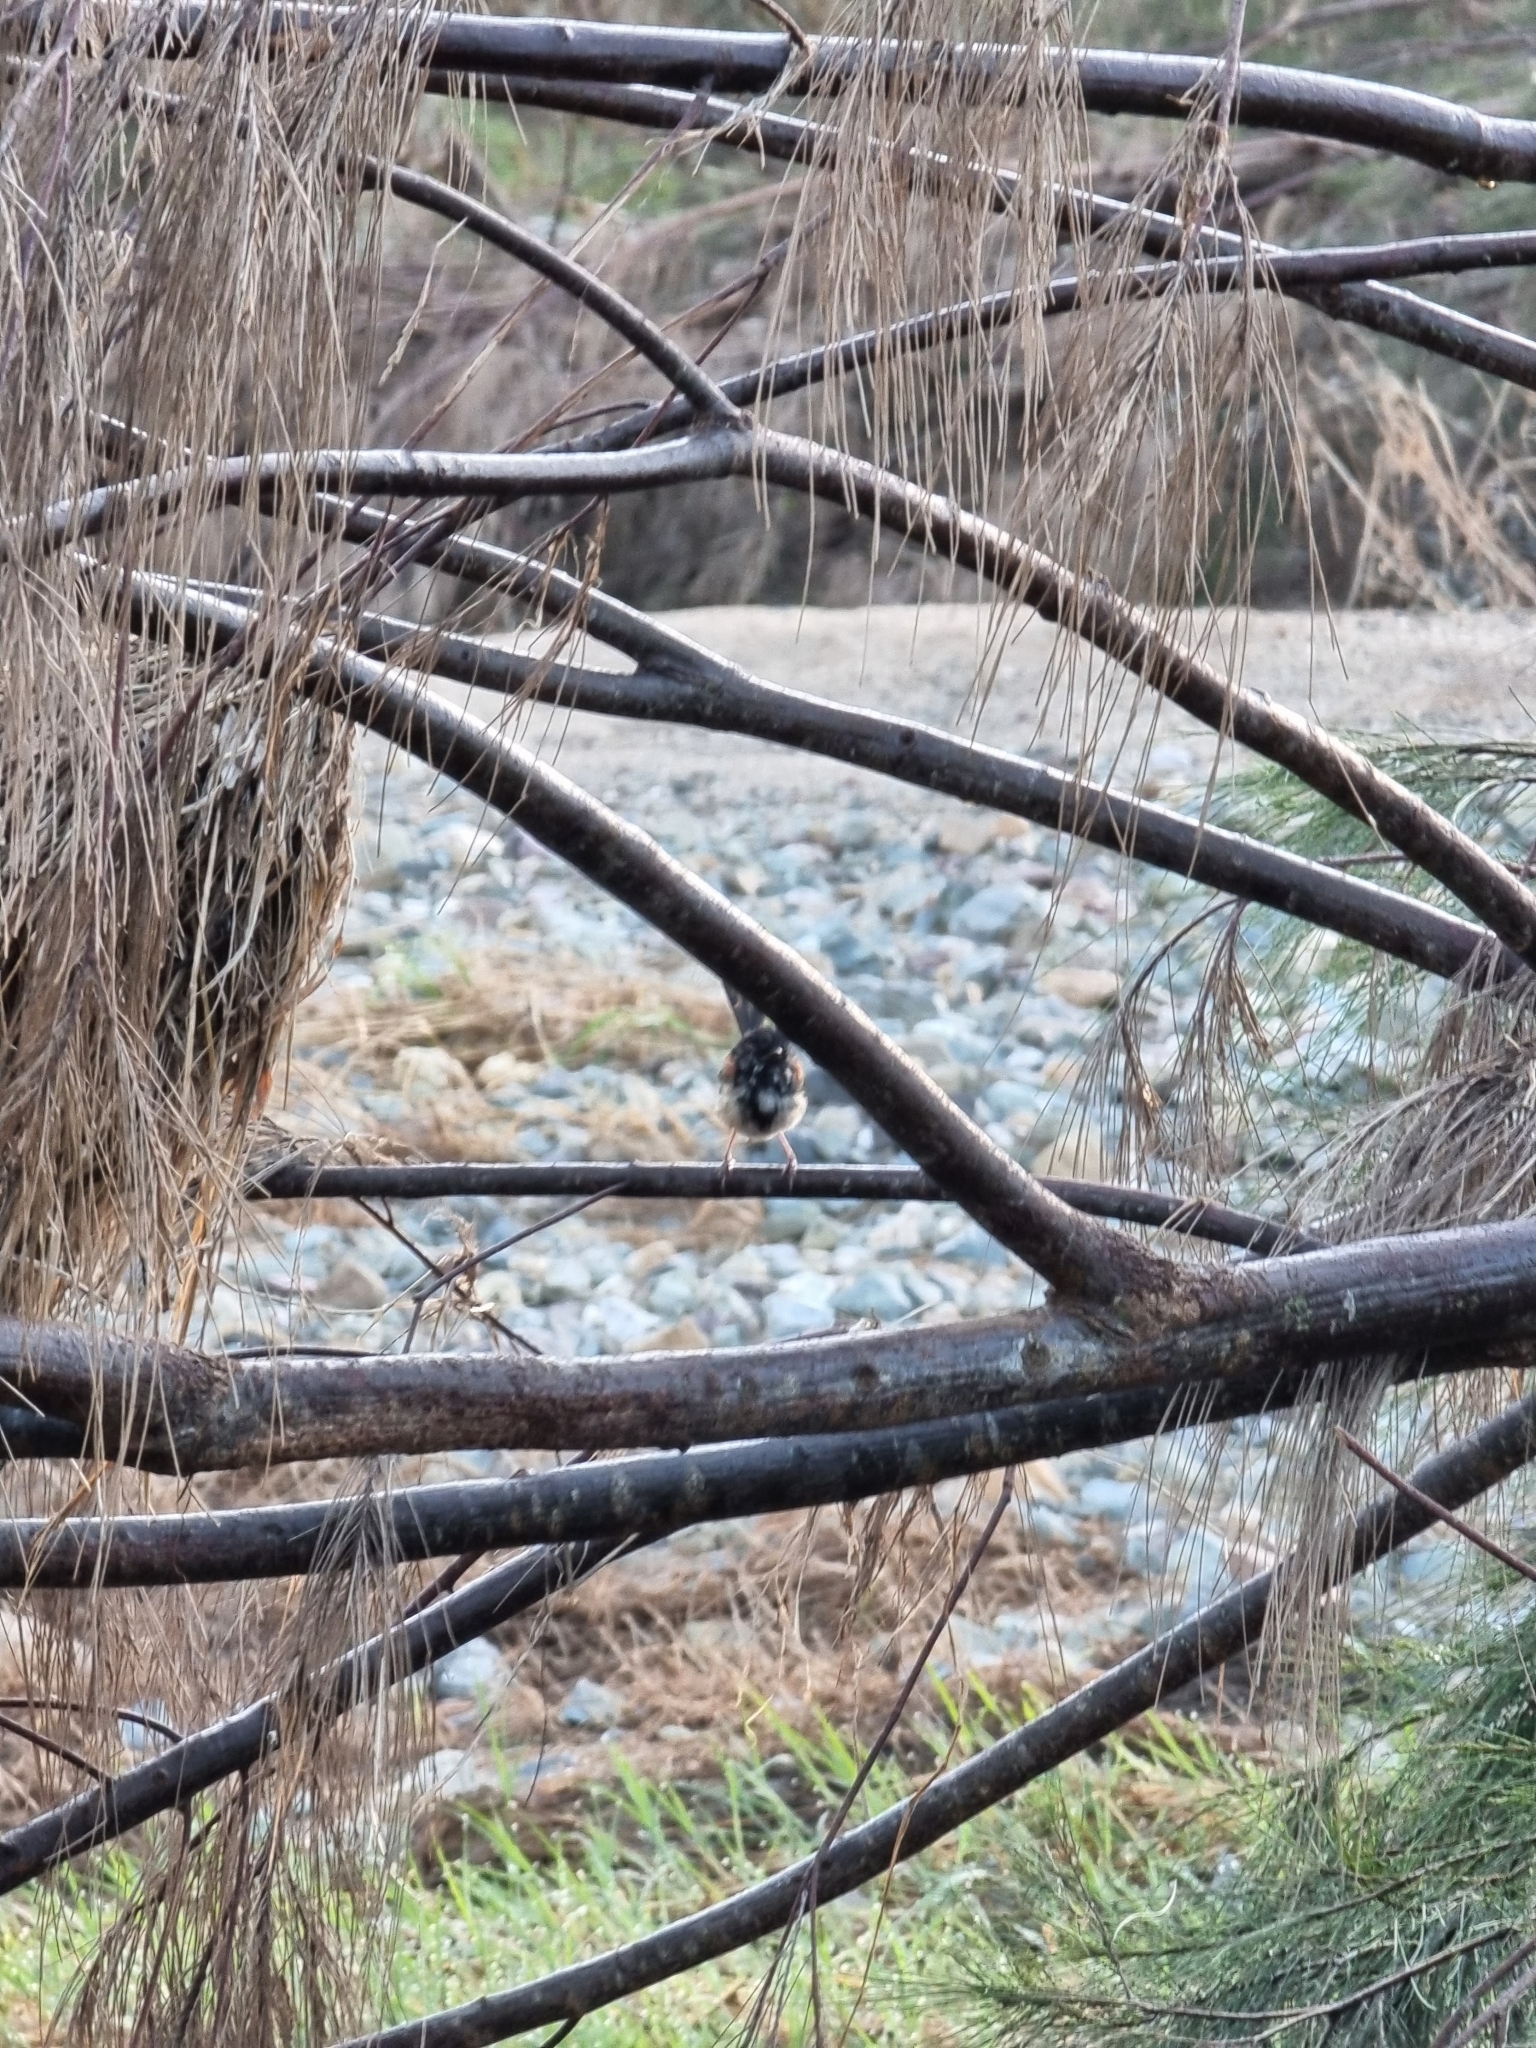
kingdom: Animalia
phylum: Chordata
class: Aves
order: Passeriformes
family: Maluridae
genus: Malurus
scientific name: Malurus melanocephalus
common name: Red-backed fairywren
